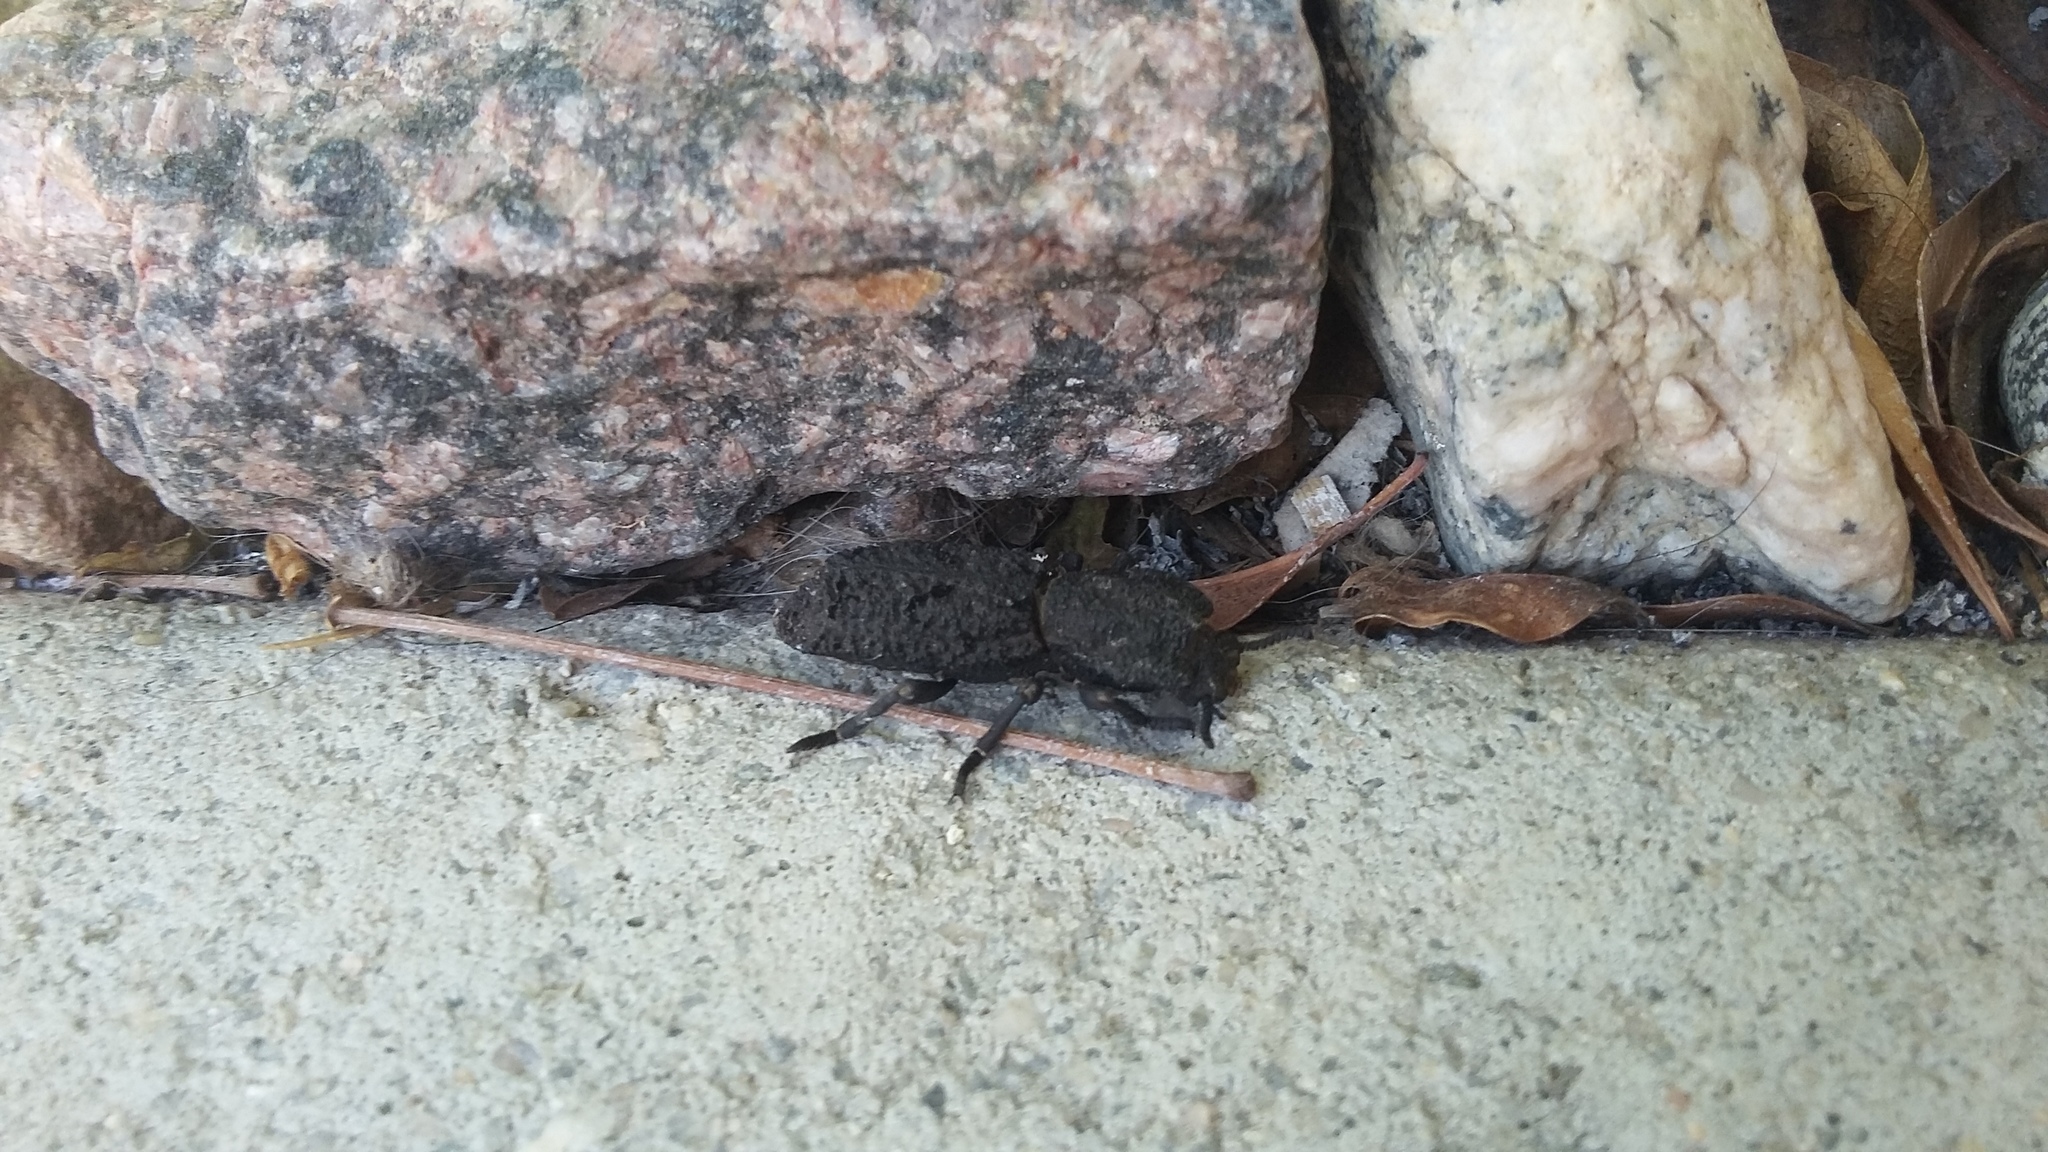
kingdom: Animalia
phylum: Arthropoda
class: Insecta
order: Coleoptera
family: Zopheridae
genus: Phloeodes
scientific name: Phloeodes diabolicus
